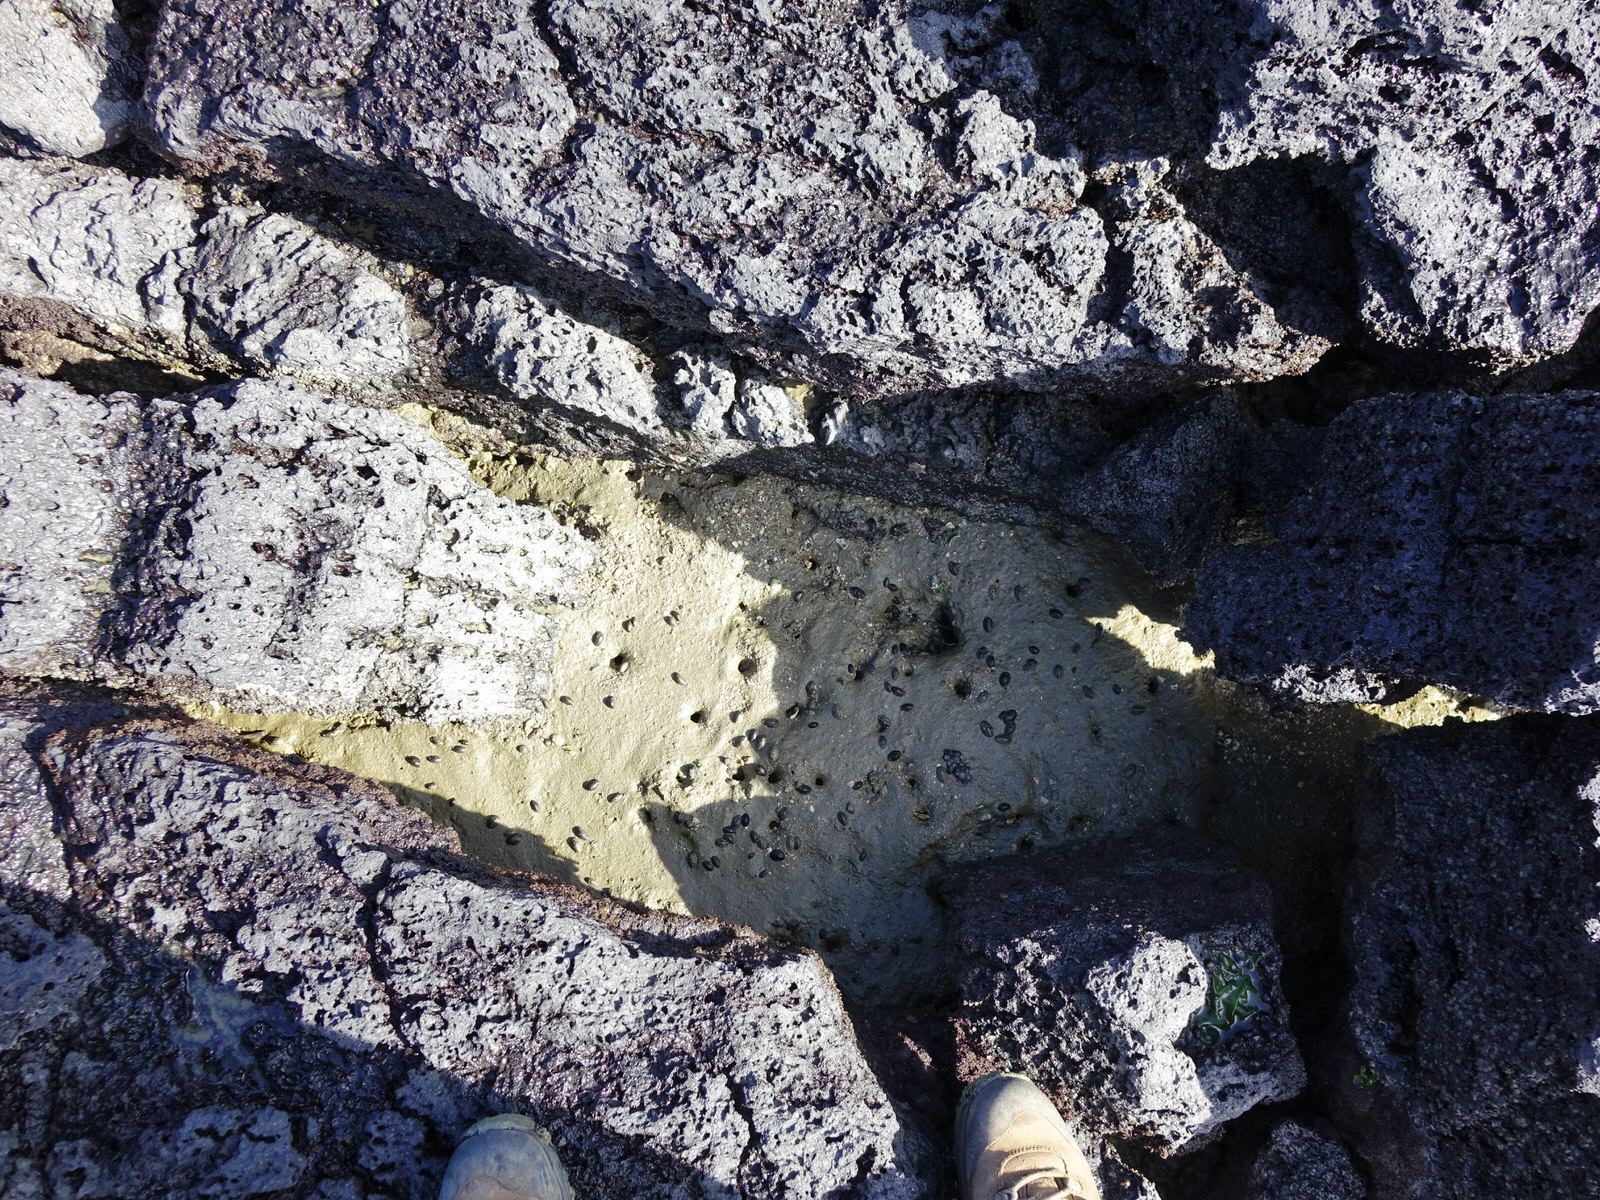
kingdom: Animalia
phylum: Mollusca
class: Gastropoda
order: Systellommatophora
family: Onchidiidae
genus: Onchidella
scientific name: Onchidella nigricans
